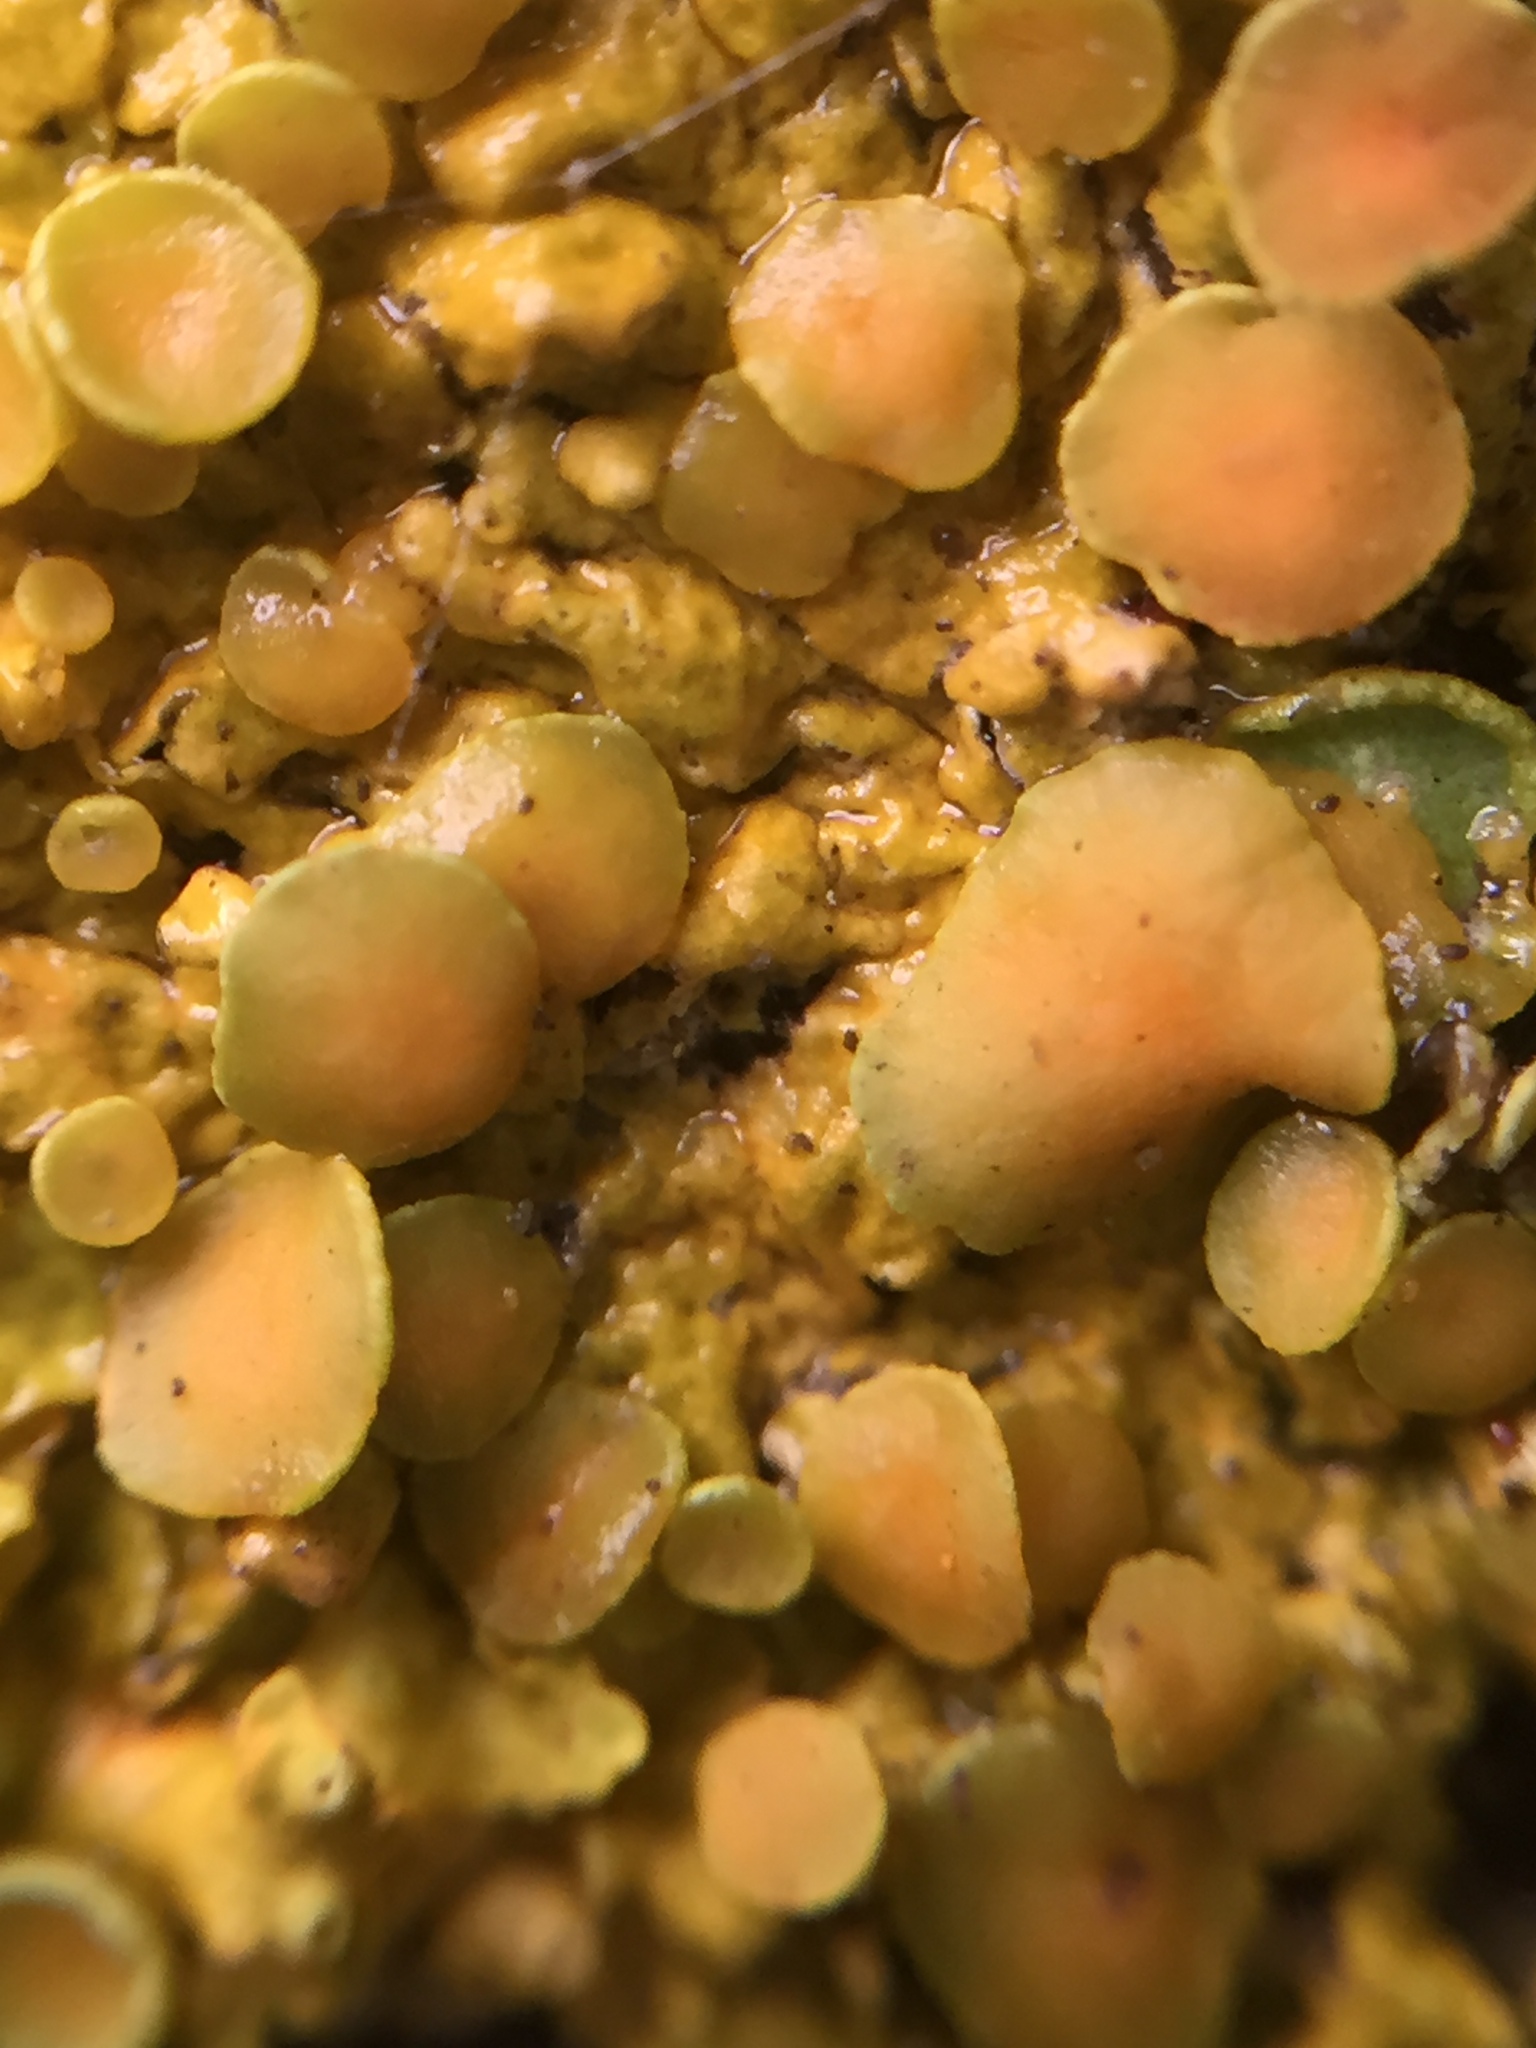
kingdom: Fungi
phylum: Ascomycota
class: Lecanoromycetes
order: Teloschistales
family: Teloschistaceae
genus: Xanthoria
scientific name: Xanthoria parietina
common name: Common orange lichen
